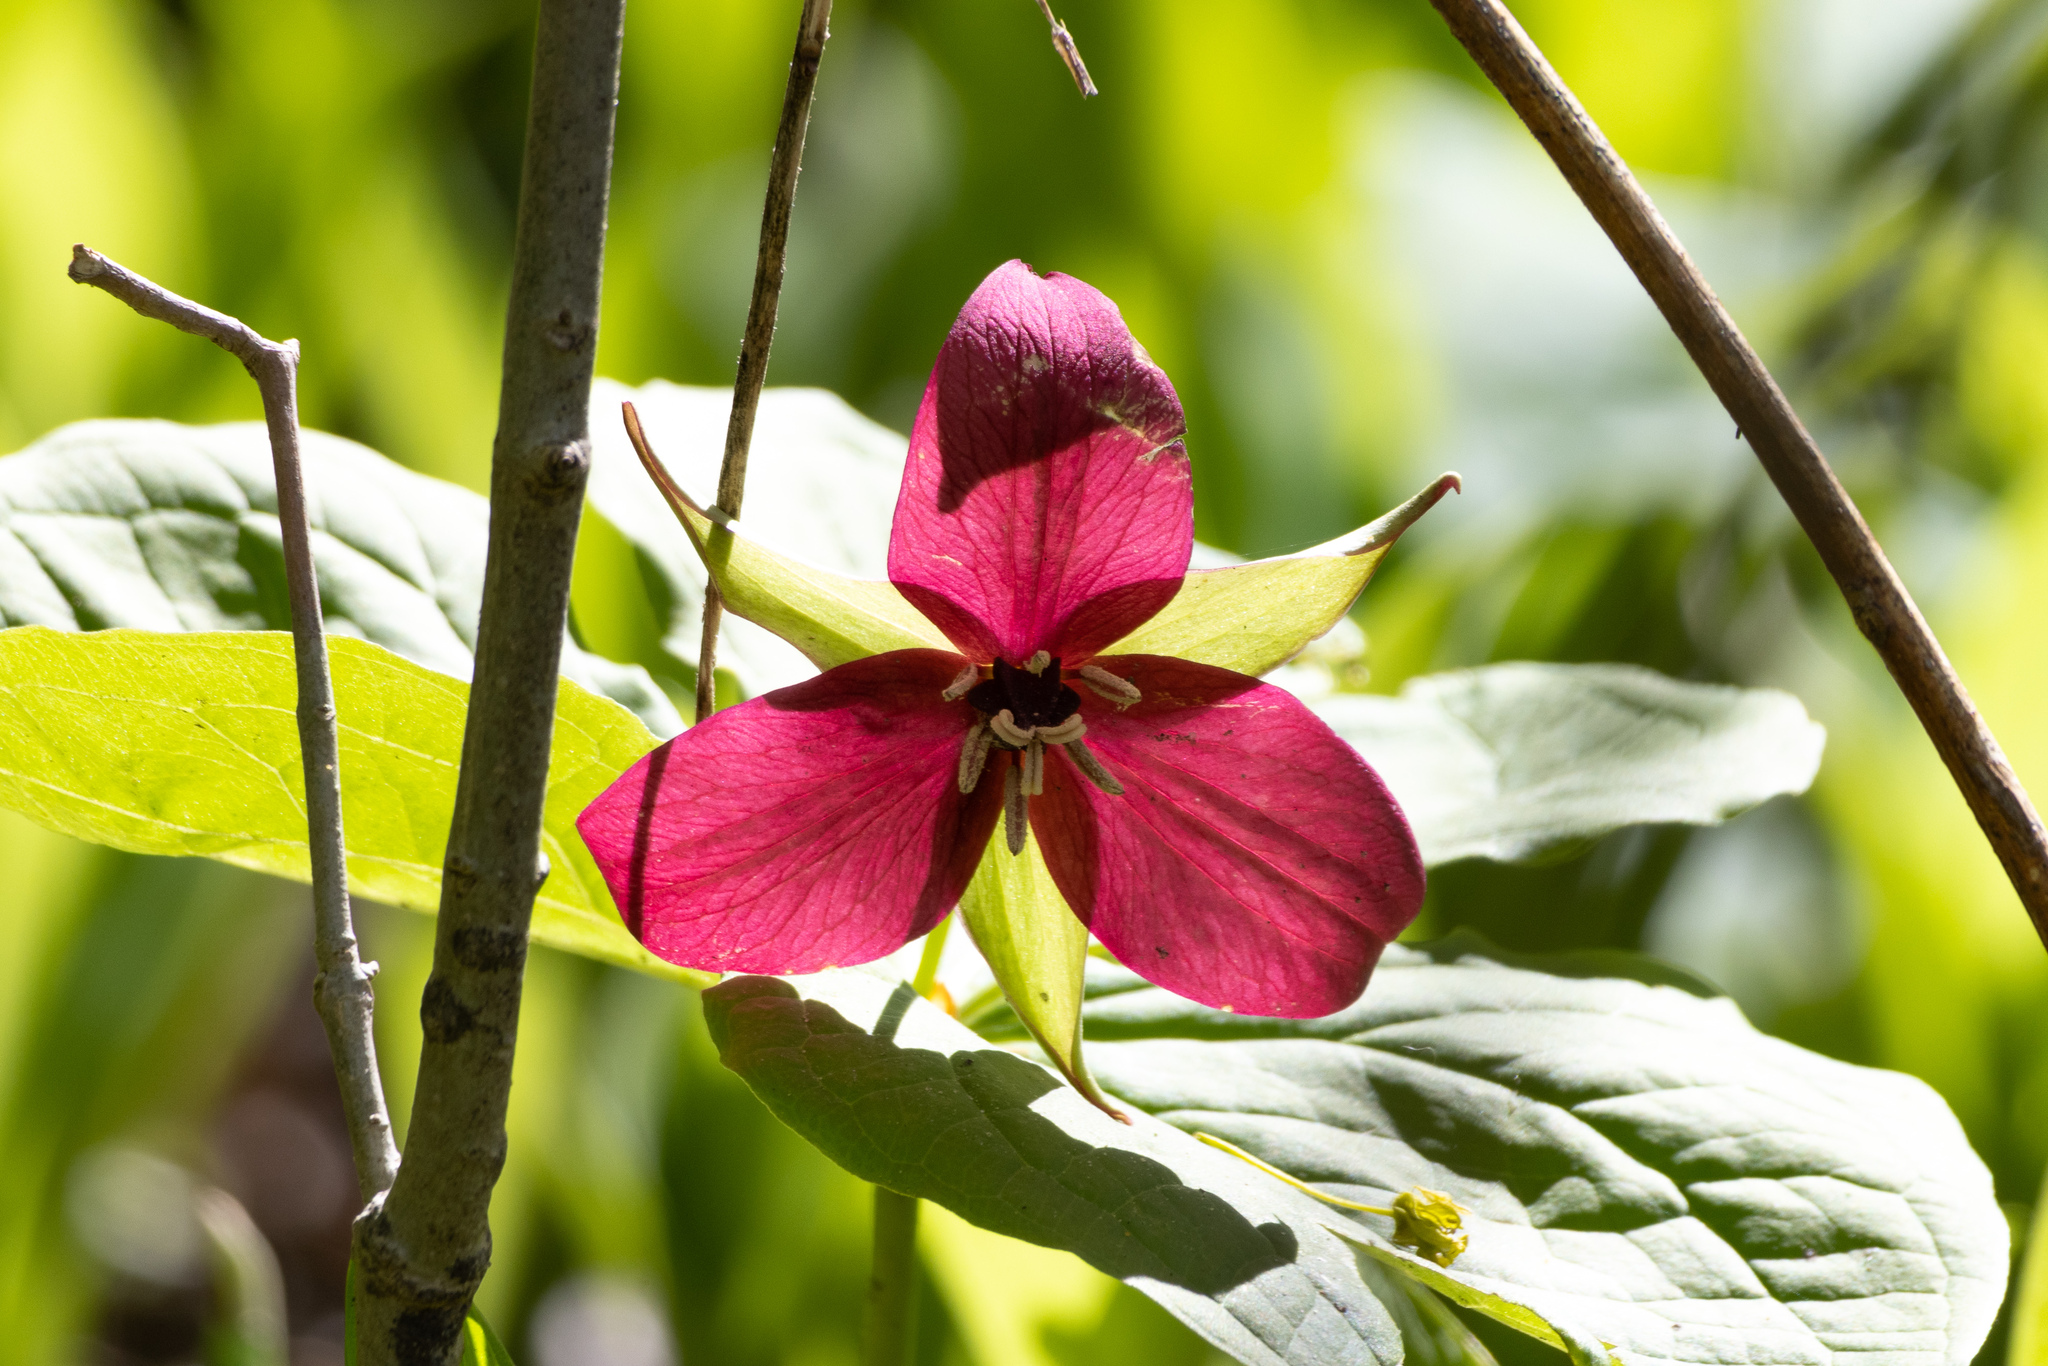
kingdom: Plantae
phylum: Tracheophyta
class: Liliopsida
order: Liliales
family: Melanthiaceae
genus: Trillium
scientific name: Trillium erectum
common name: Purple trillium
